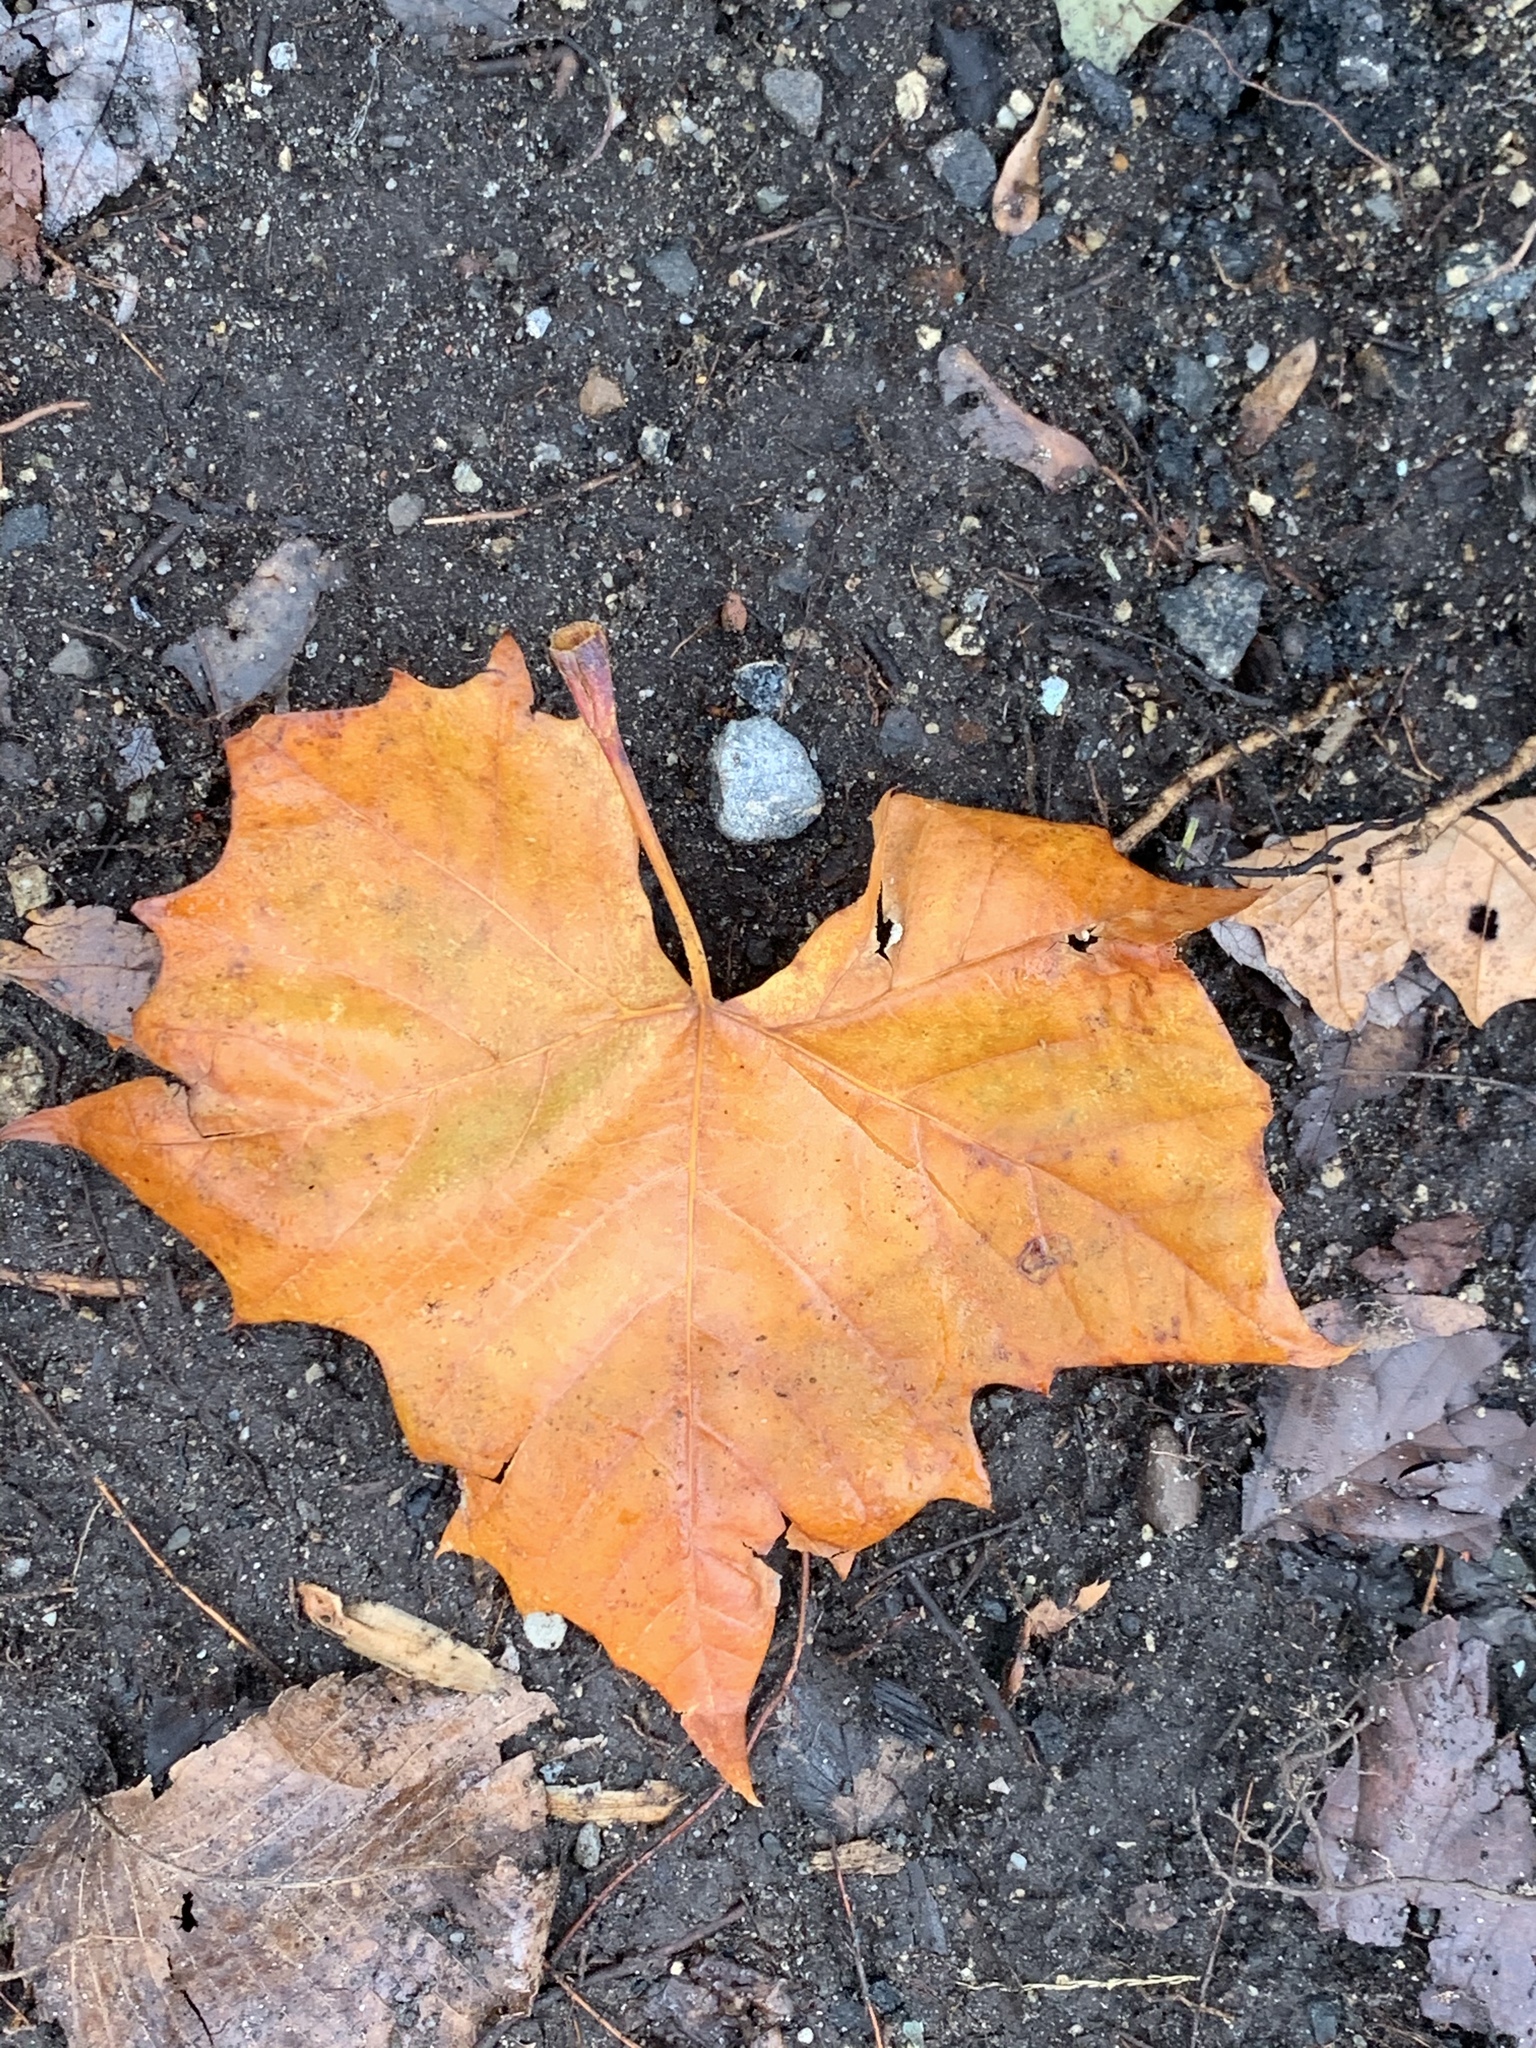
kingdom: Plantae
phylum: Tracheophyta
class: Magnoliopsida
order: Proteales
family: Platanaceae
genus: Platanus
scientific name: Platanus occidentalis
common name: American sycamore
